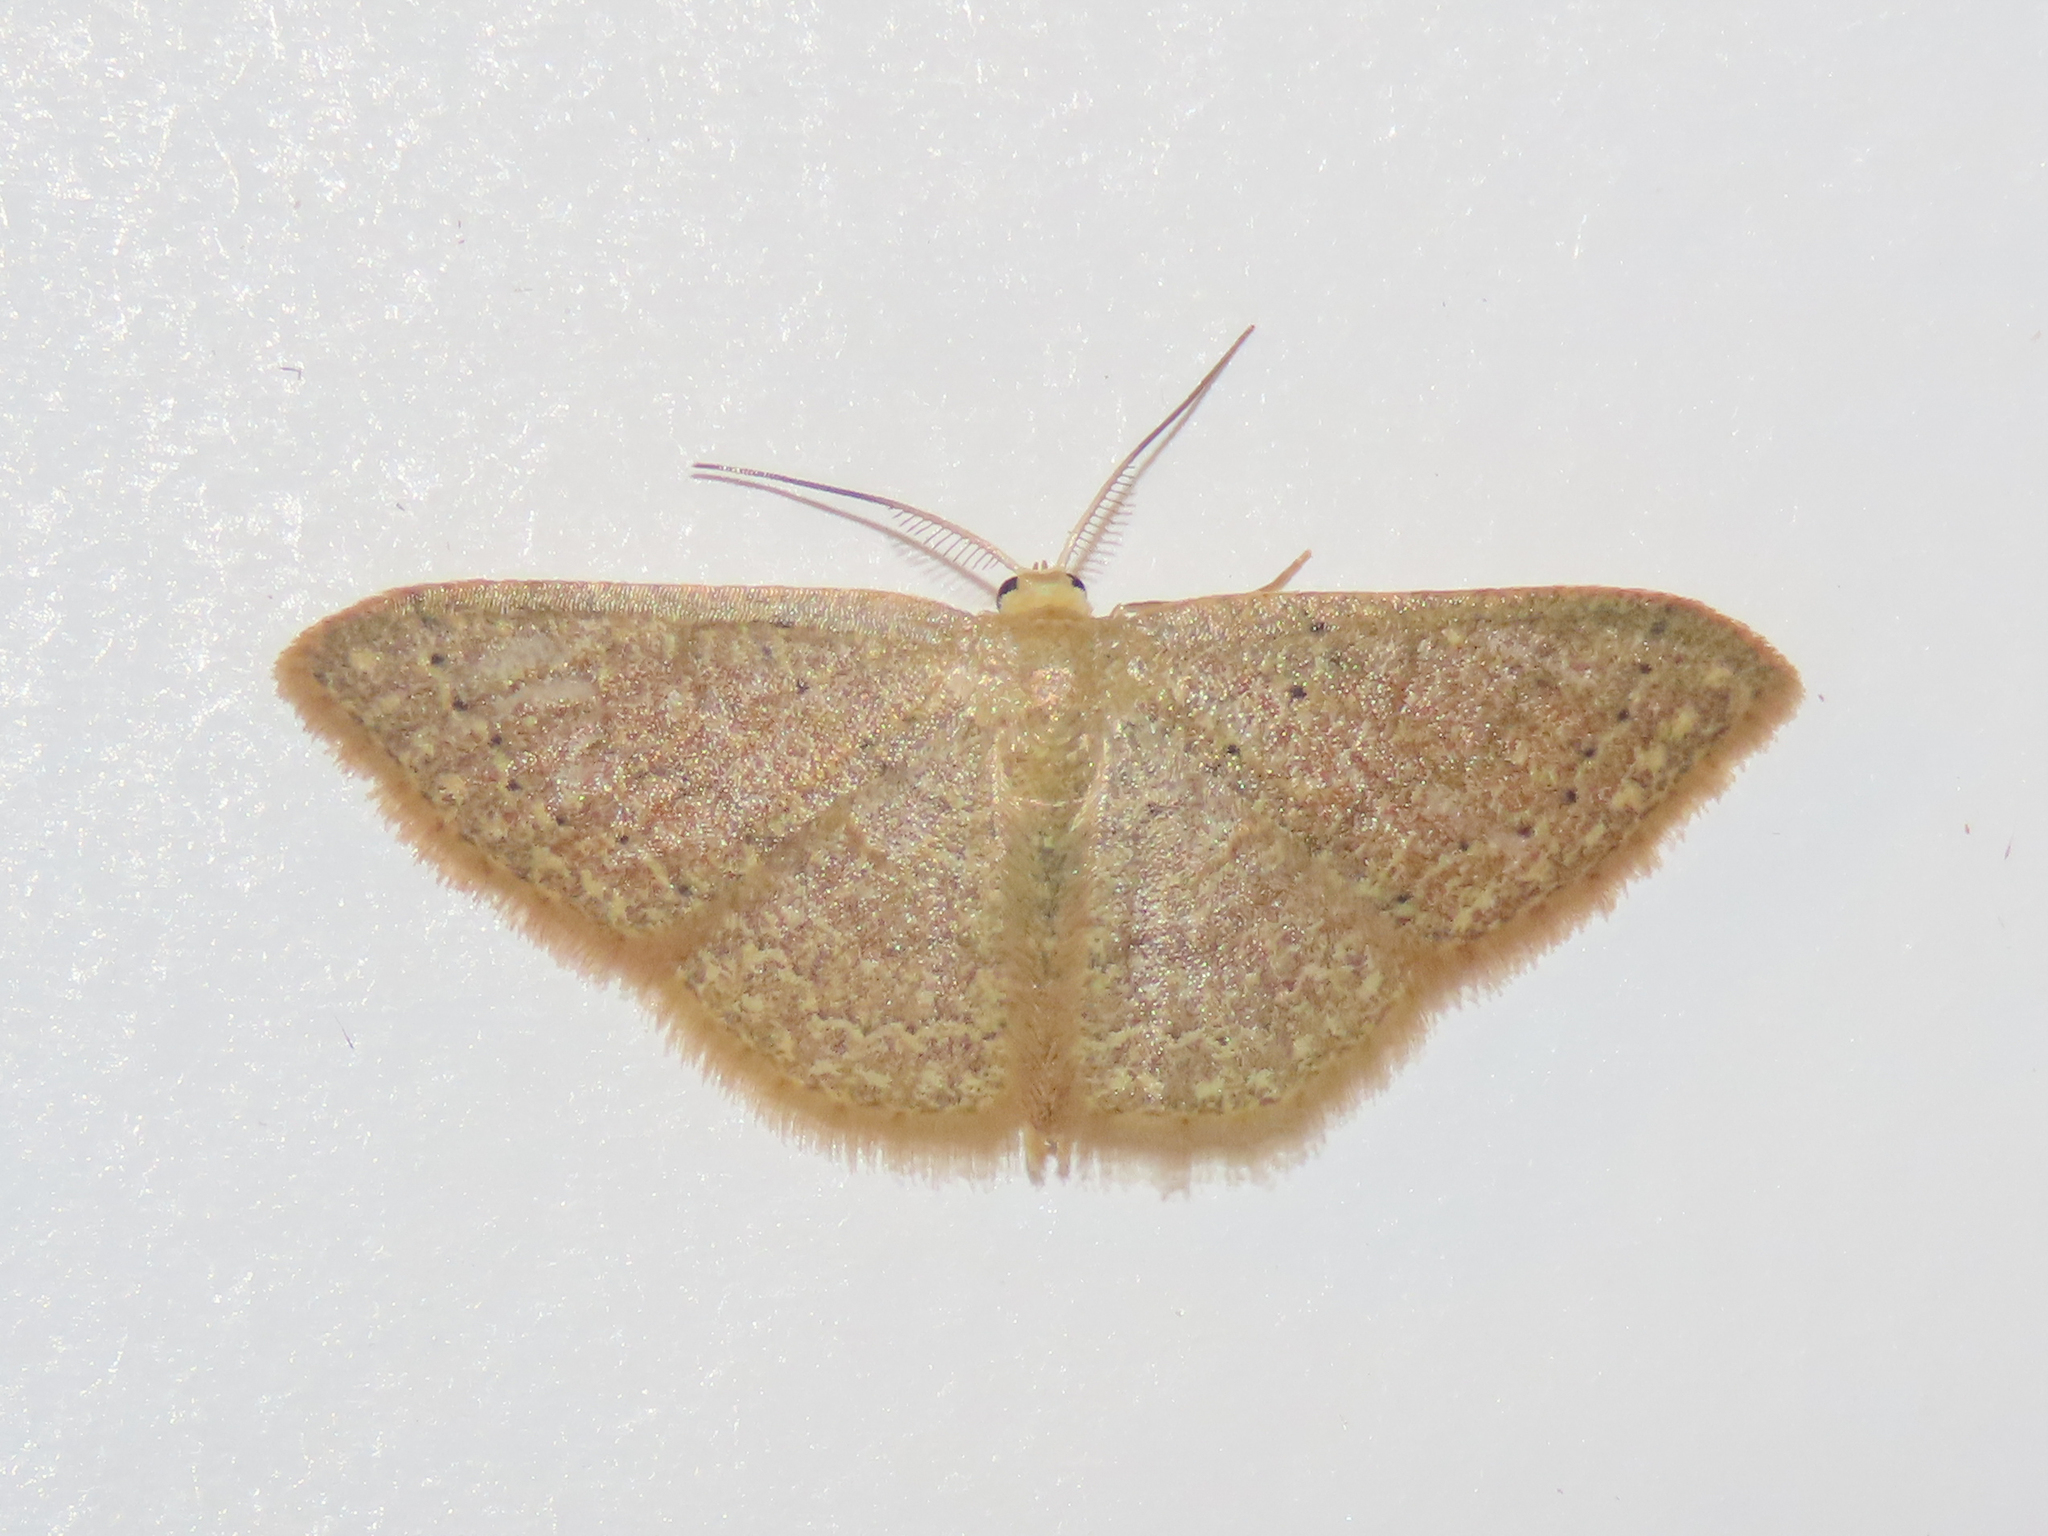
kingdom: Animalia
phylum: Arthropoda
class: Insecta
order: Lepidoptera
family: Geometridae
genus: Pleuroprucha
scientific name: Pleuroprucha insulsaria
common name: Common tan wave
